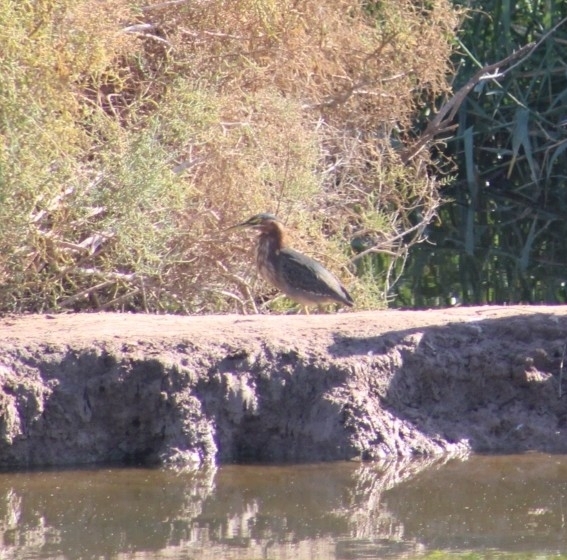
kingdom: Animalia
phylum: Chordata
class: Aves
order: Pelecaniformes
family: Ardeidae
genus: Butorides
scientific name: Butorides virescens
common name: Green heron
